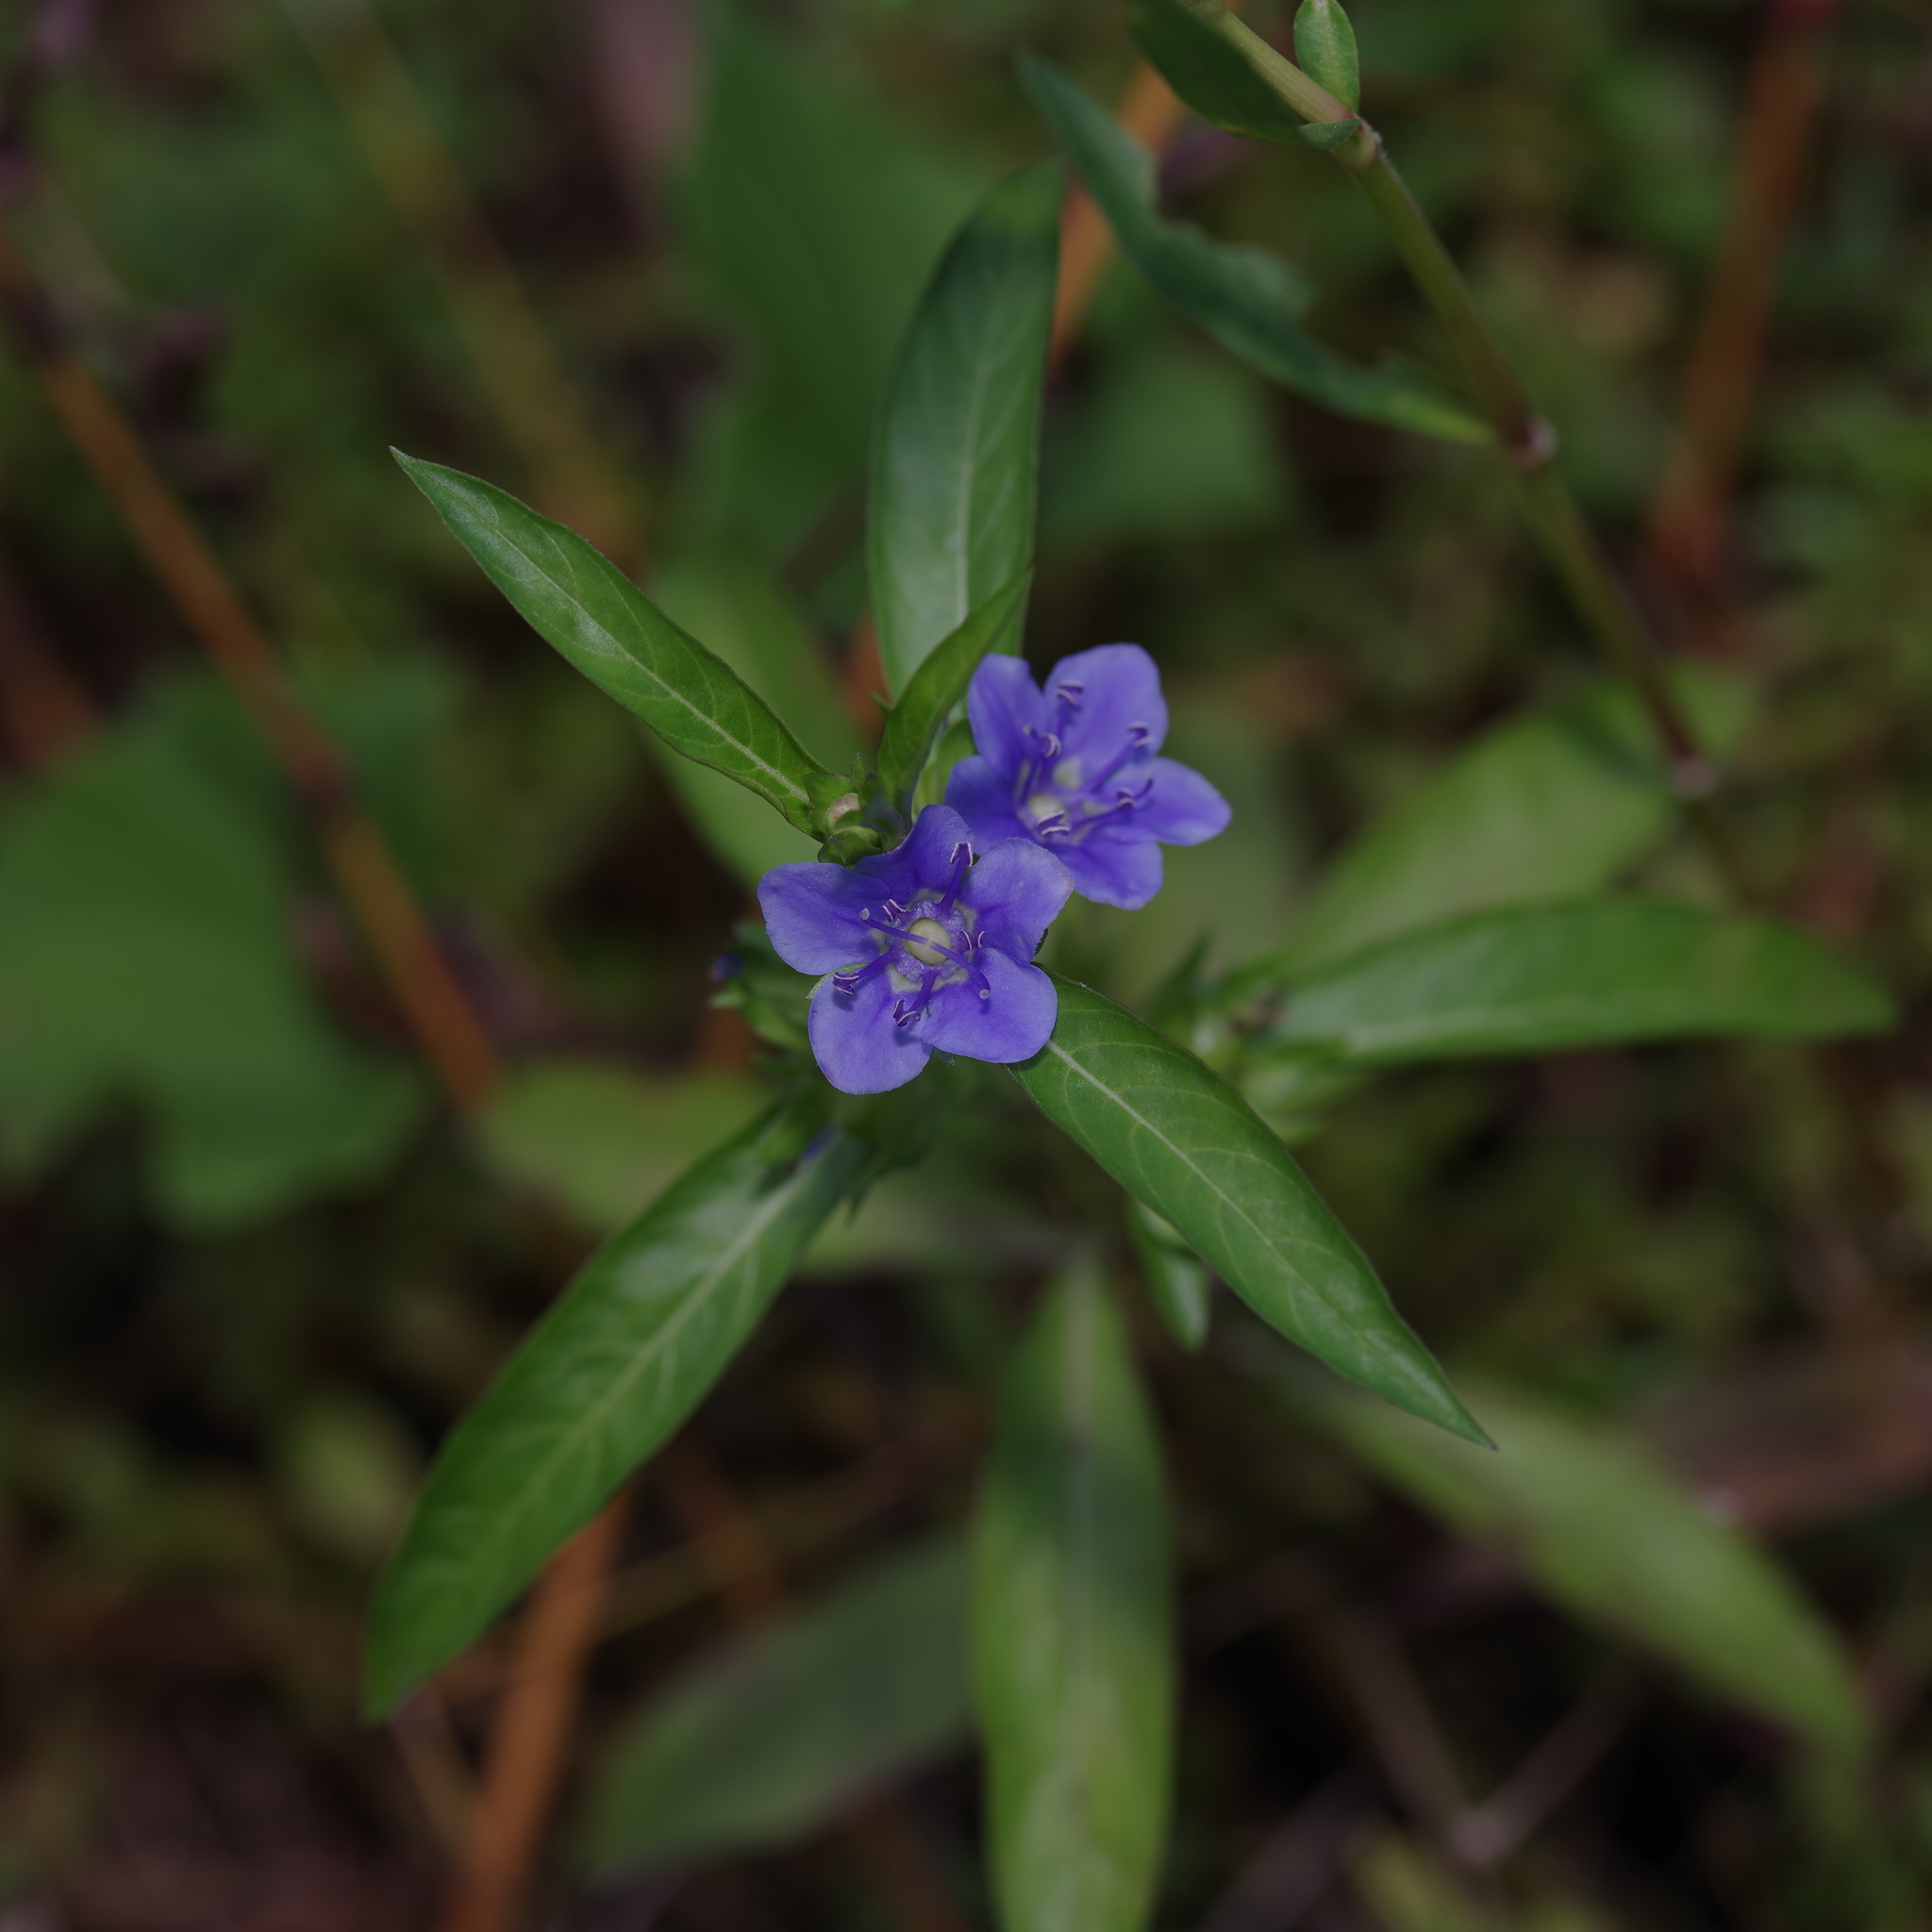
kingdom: Plantae
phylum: Tracheophyta
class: Magnoliopsida
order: Solanales
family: Hydroleaceae
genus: Hydrolea
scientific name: Hydrolea uniflora
